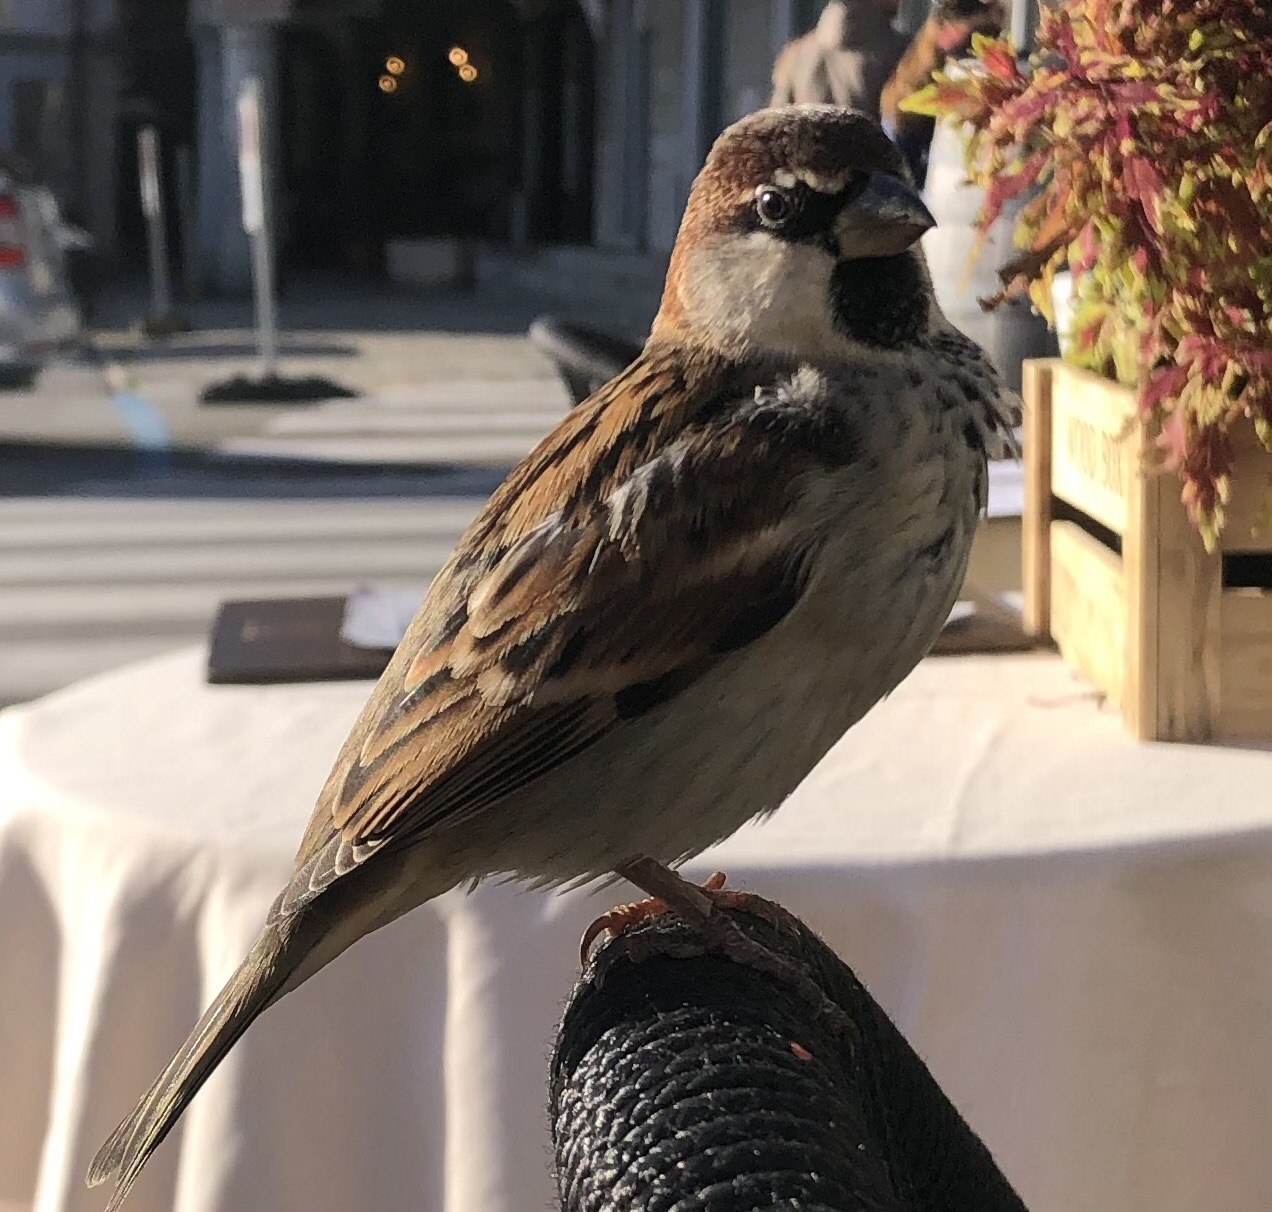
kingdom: Animalia
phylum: Chordata
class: Aves
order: Passeriformes
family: Passeridae
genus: Passer
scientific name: Passer italiae
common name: Italian sparrow
